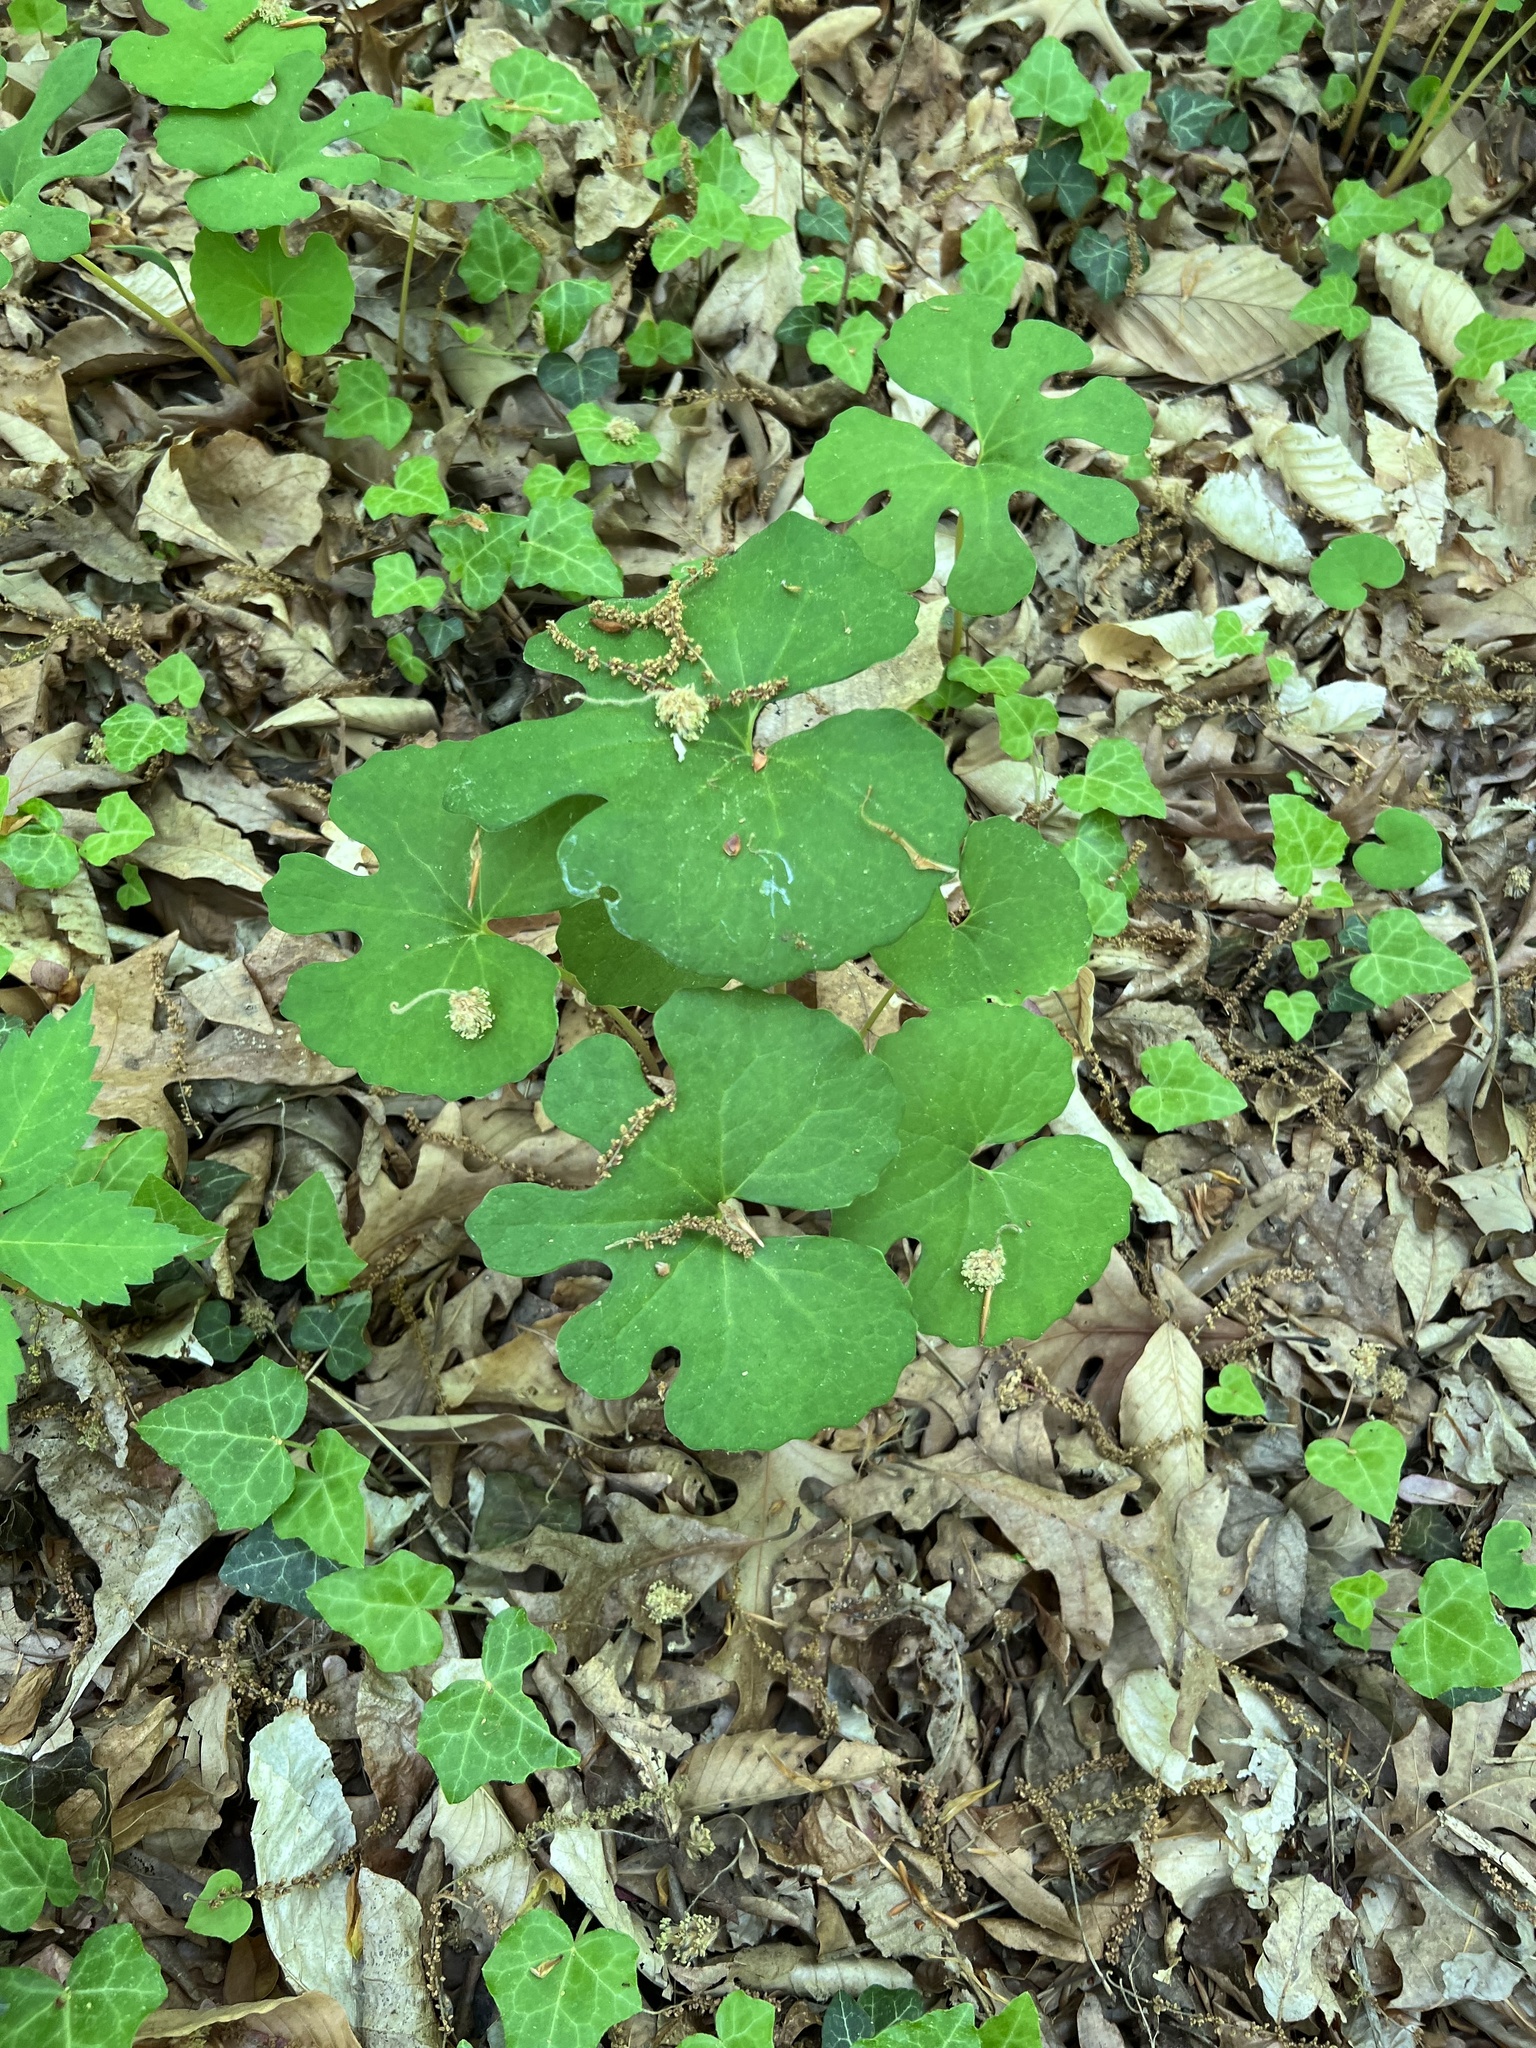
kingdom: Plantae
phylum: Tracheophyta
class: Magnoliopsida
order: Ranunculales
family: Papaveraceae
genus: Sanguinaria
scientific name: Sanguinaria canadensis
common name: Bloodroot
